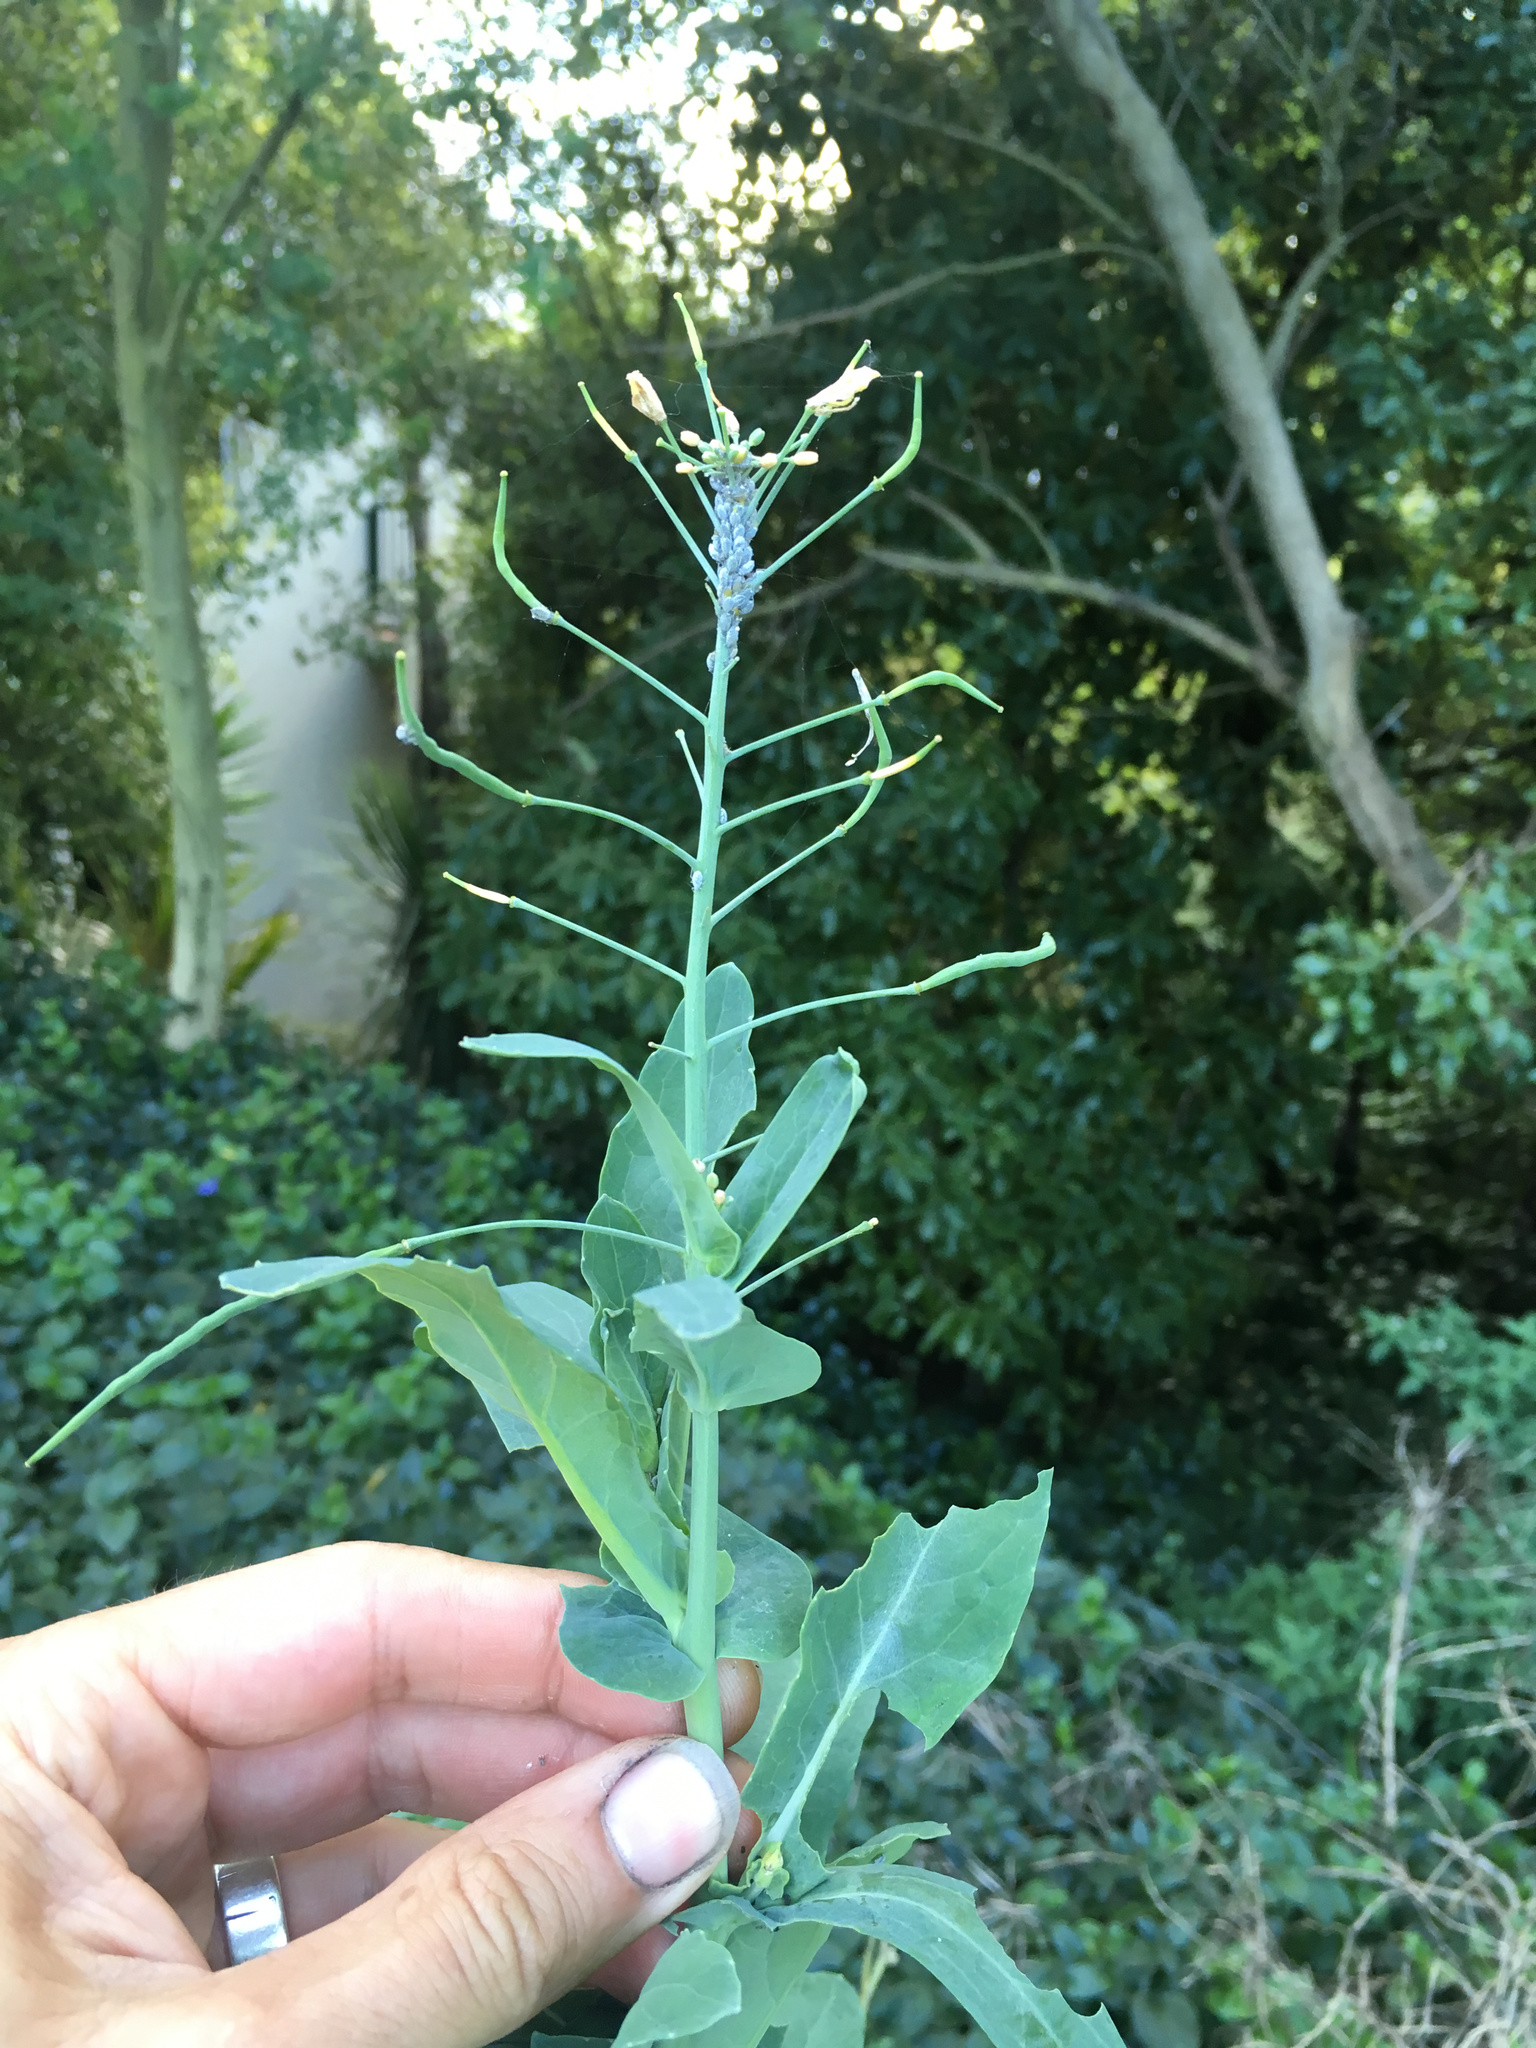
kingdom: Plantae
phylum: Tracheophyta
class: Magnoliopsida
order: Brassicales
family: Brassicaceae
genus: Brassica
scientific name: Brassica oleracea
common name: Cabbage
